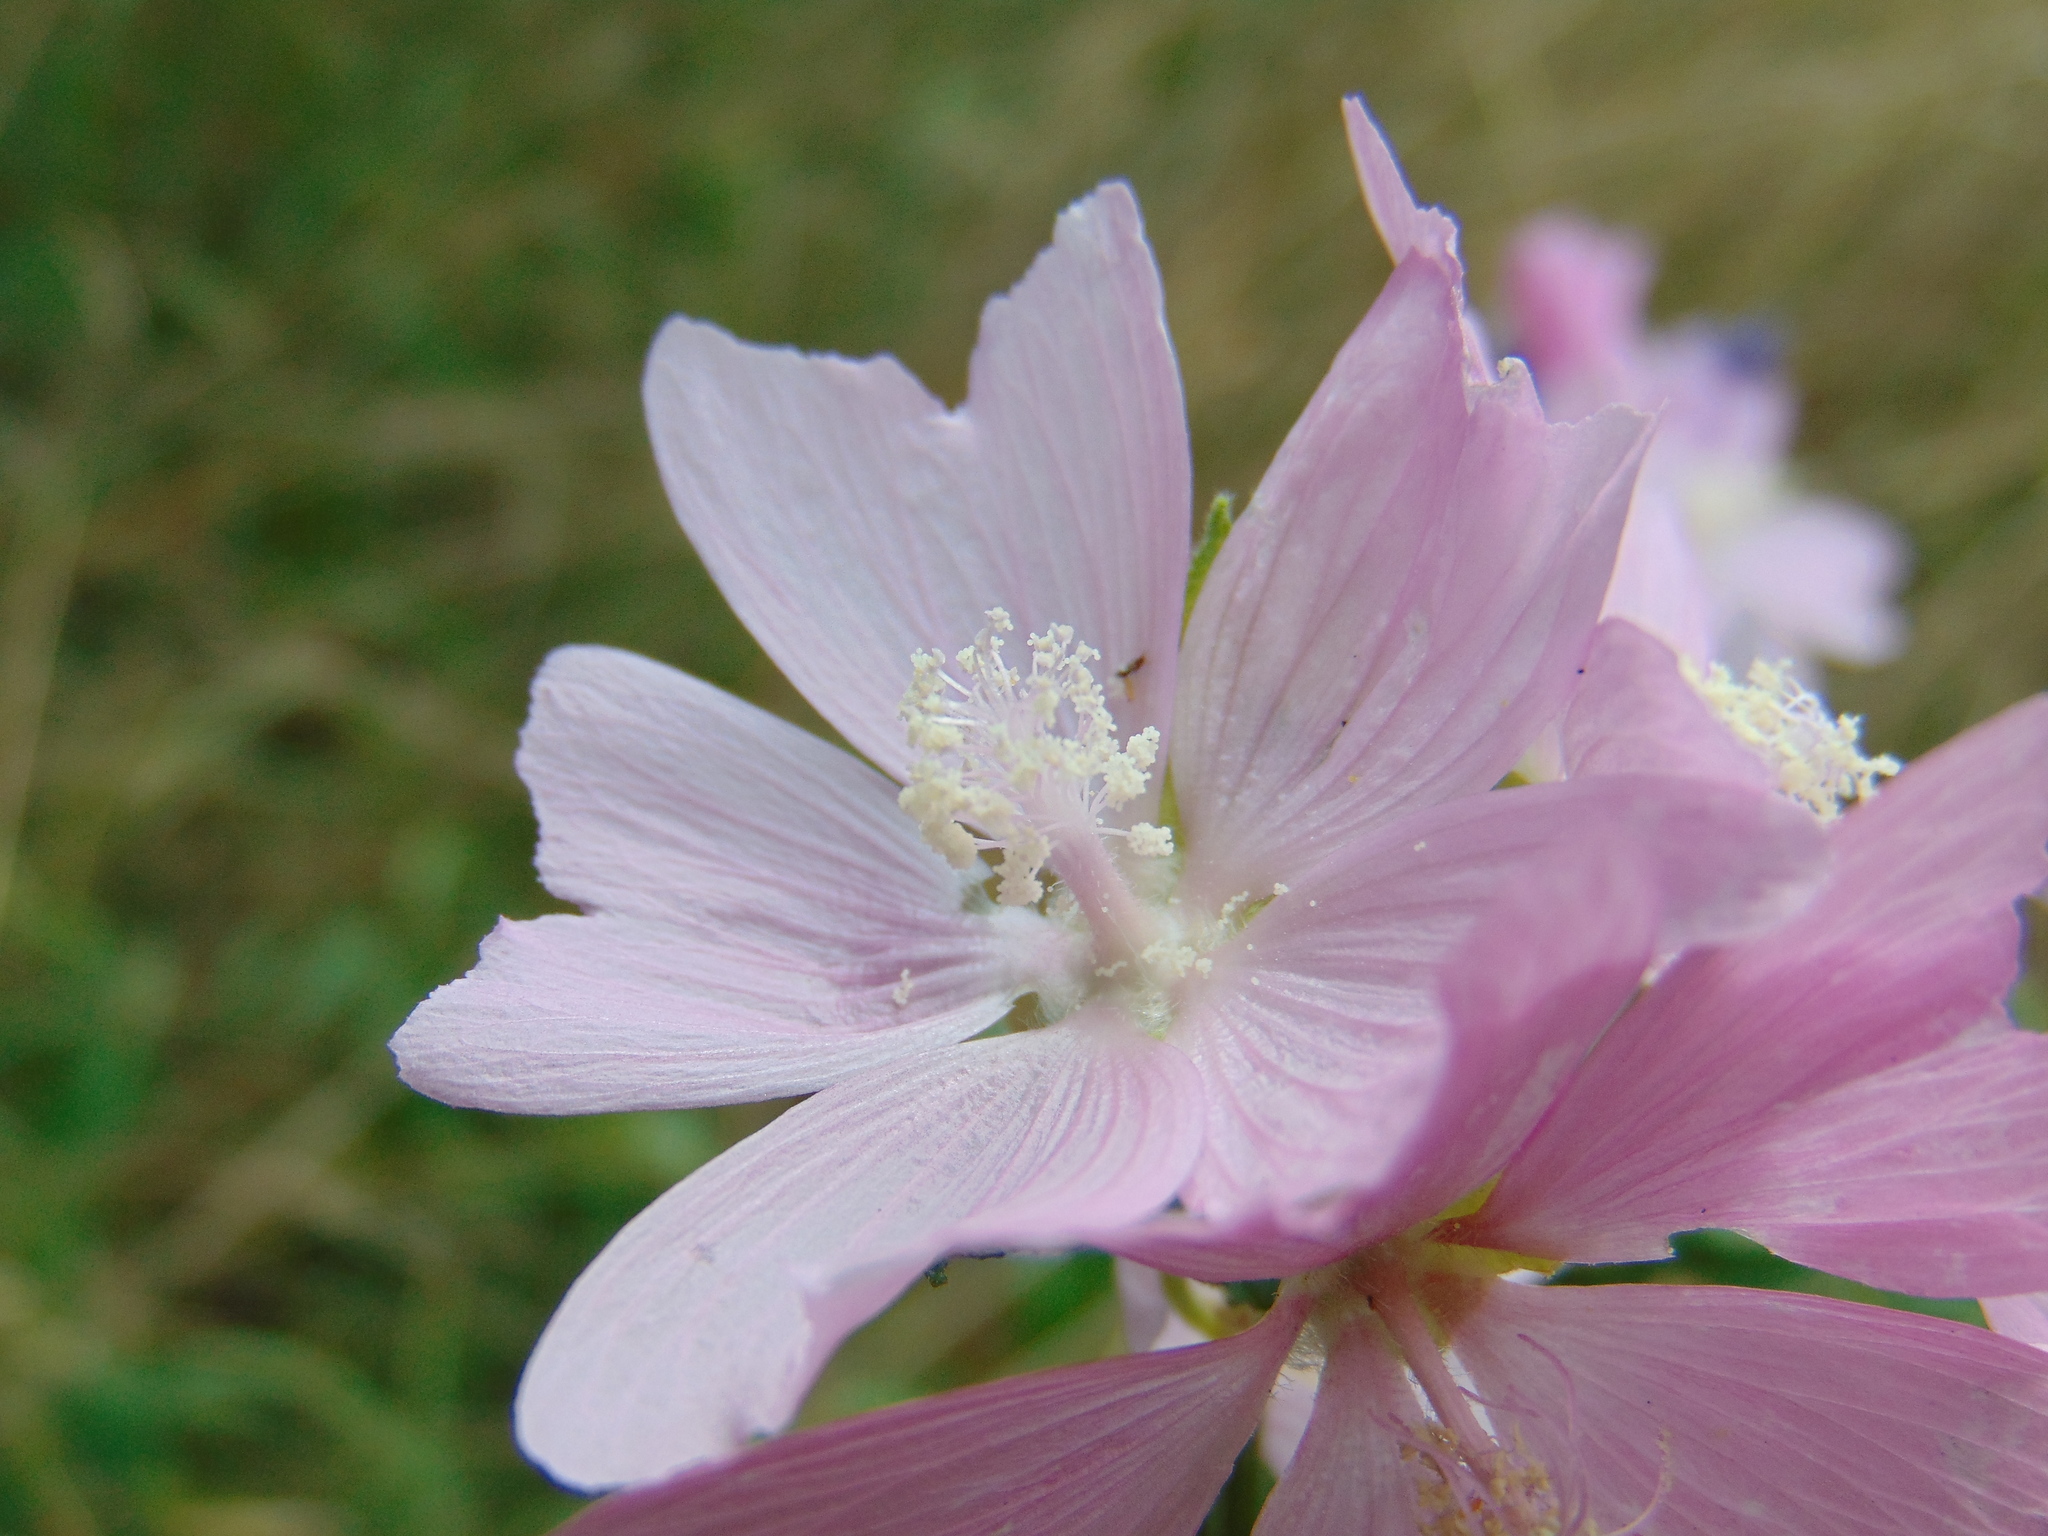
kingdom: Plantae
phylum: Tracheophyta
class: Magnoliopsida
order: Malvales
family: Malvaceae
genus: Malva
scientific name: Malva alcea
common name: Greater musk-mallow
